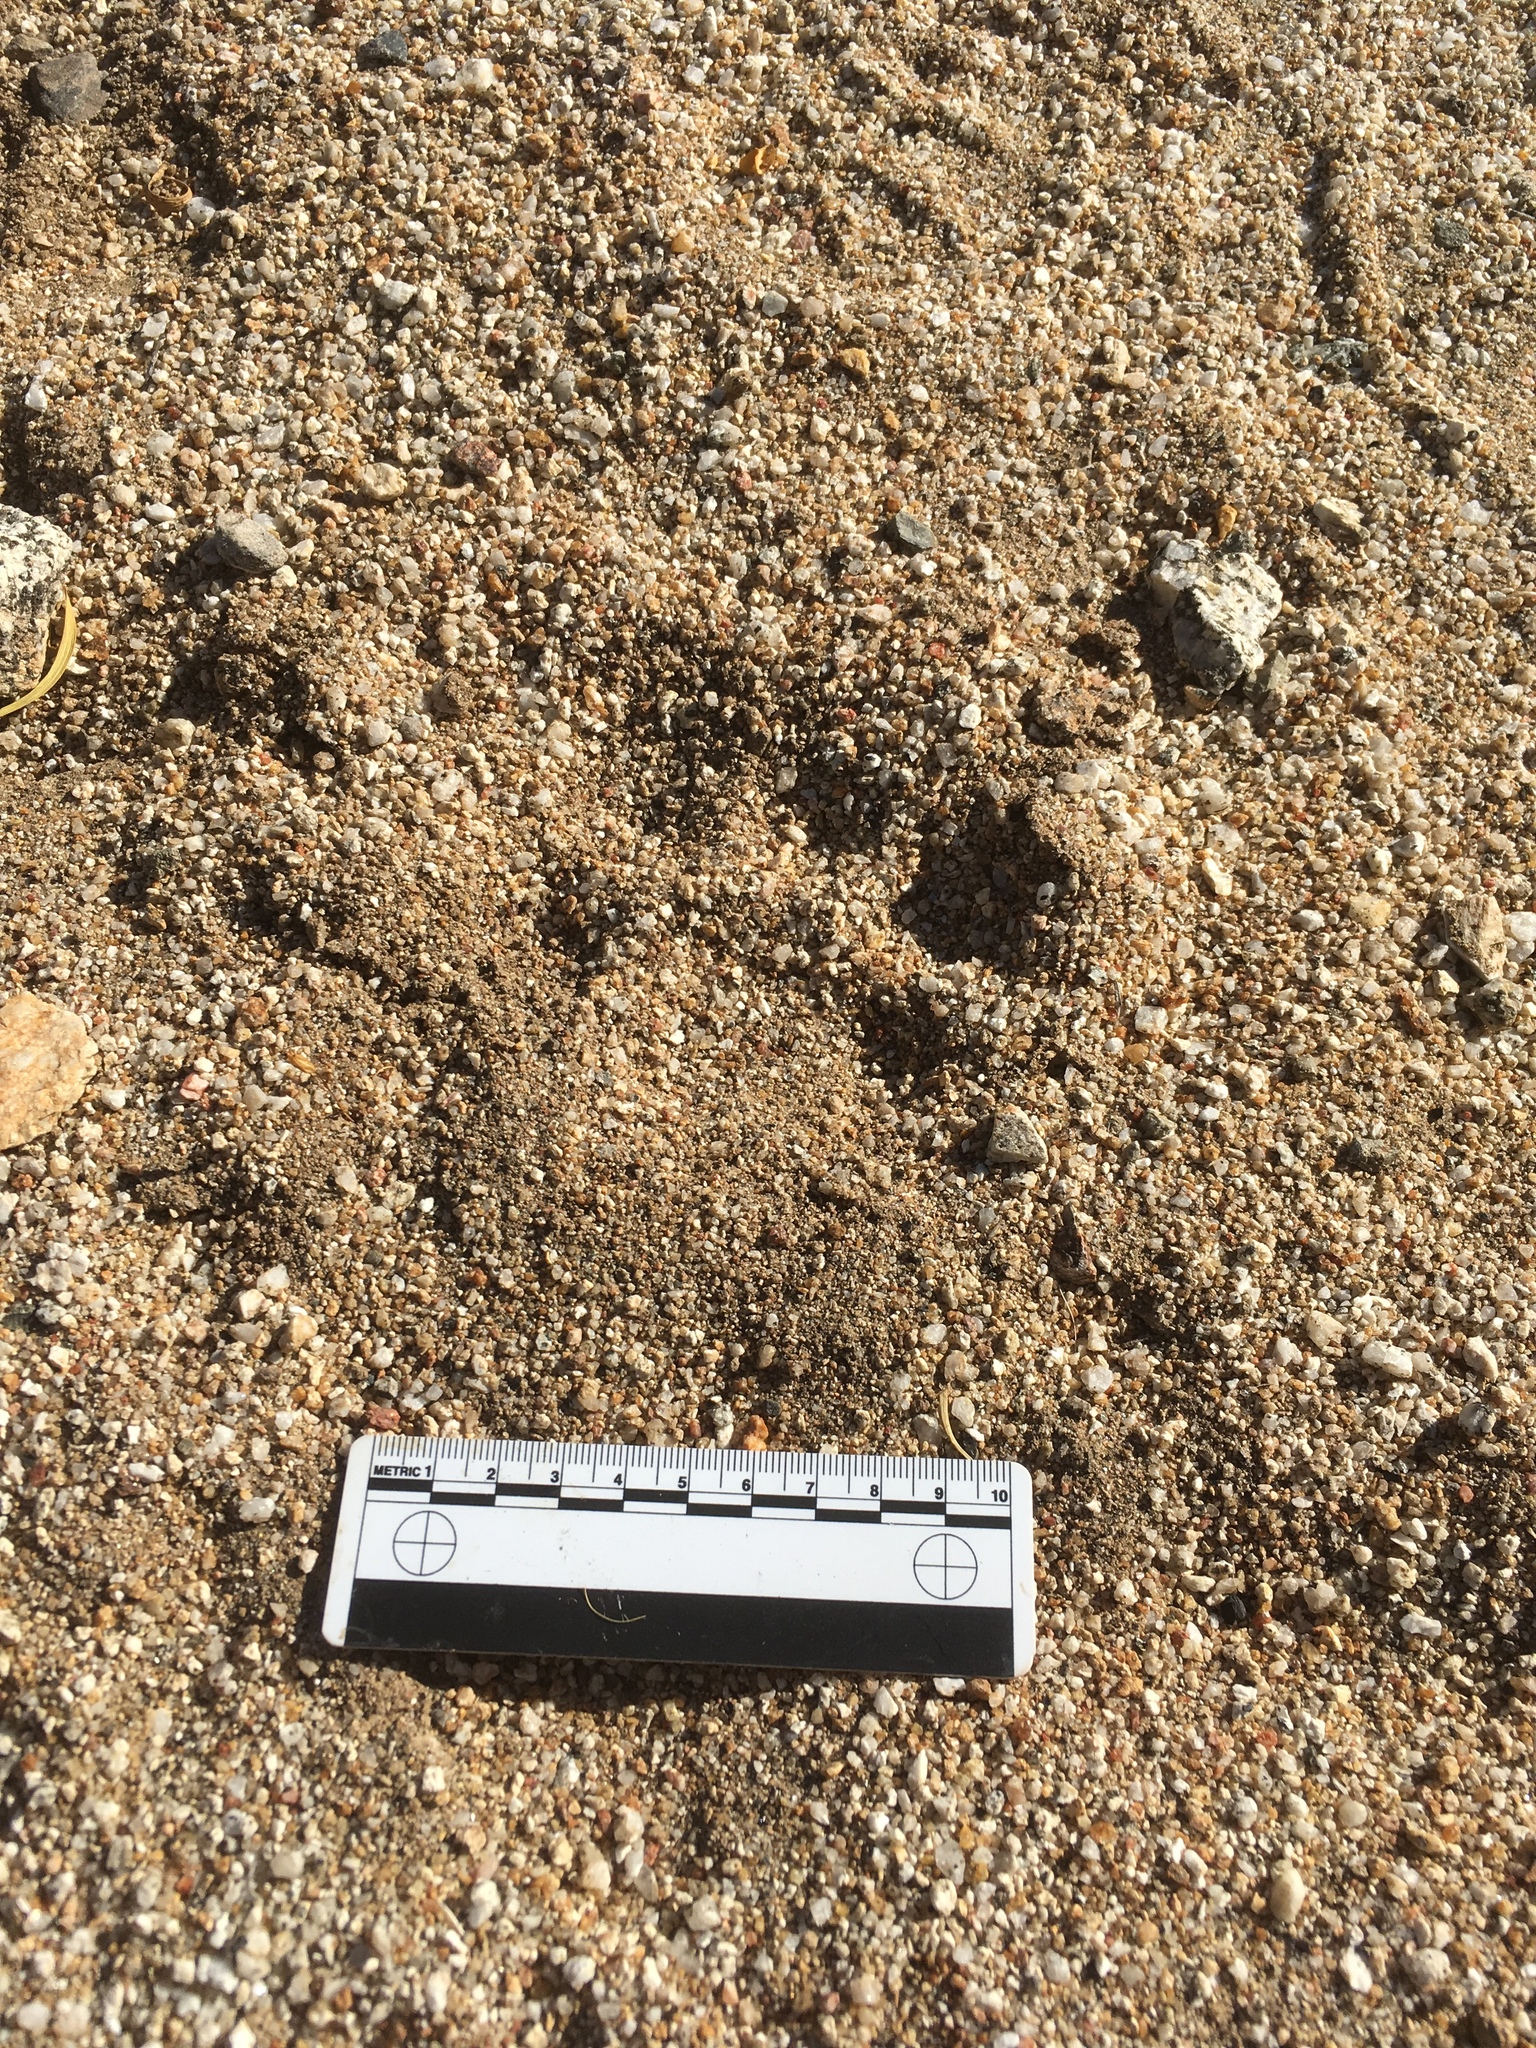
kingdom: Animalia
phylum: Chordata
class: Mammalia
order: Carnivora
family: Felidae
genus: Puma
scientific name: Puma concolor
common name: Puma
